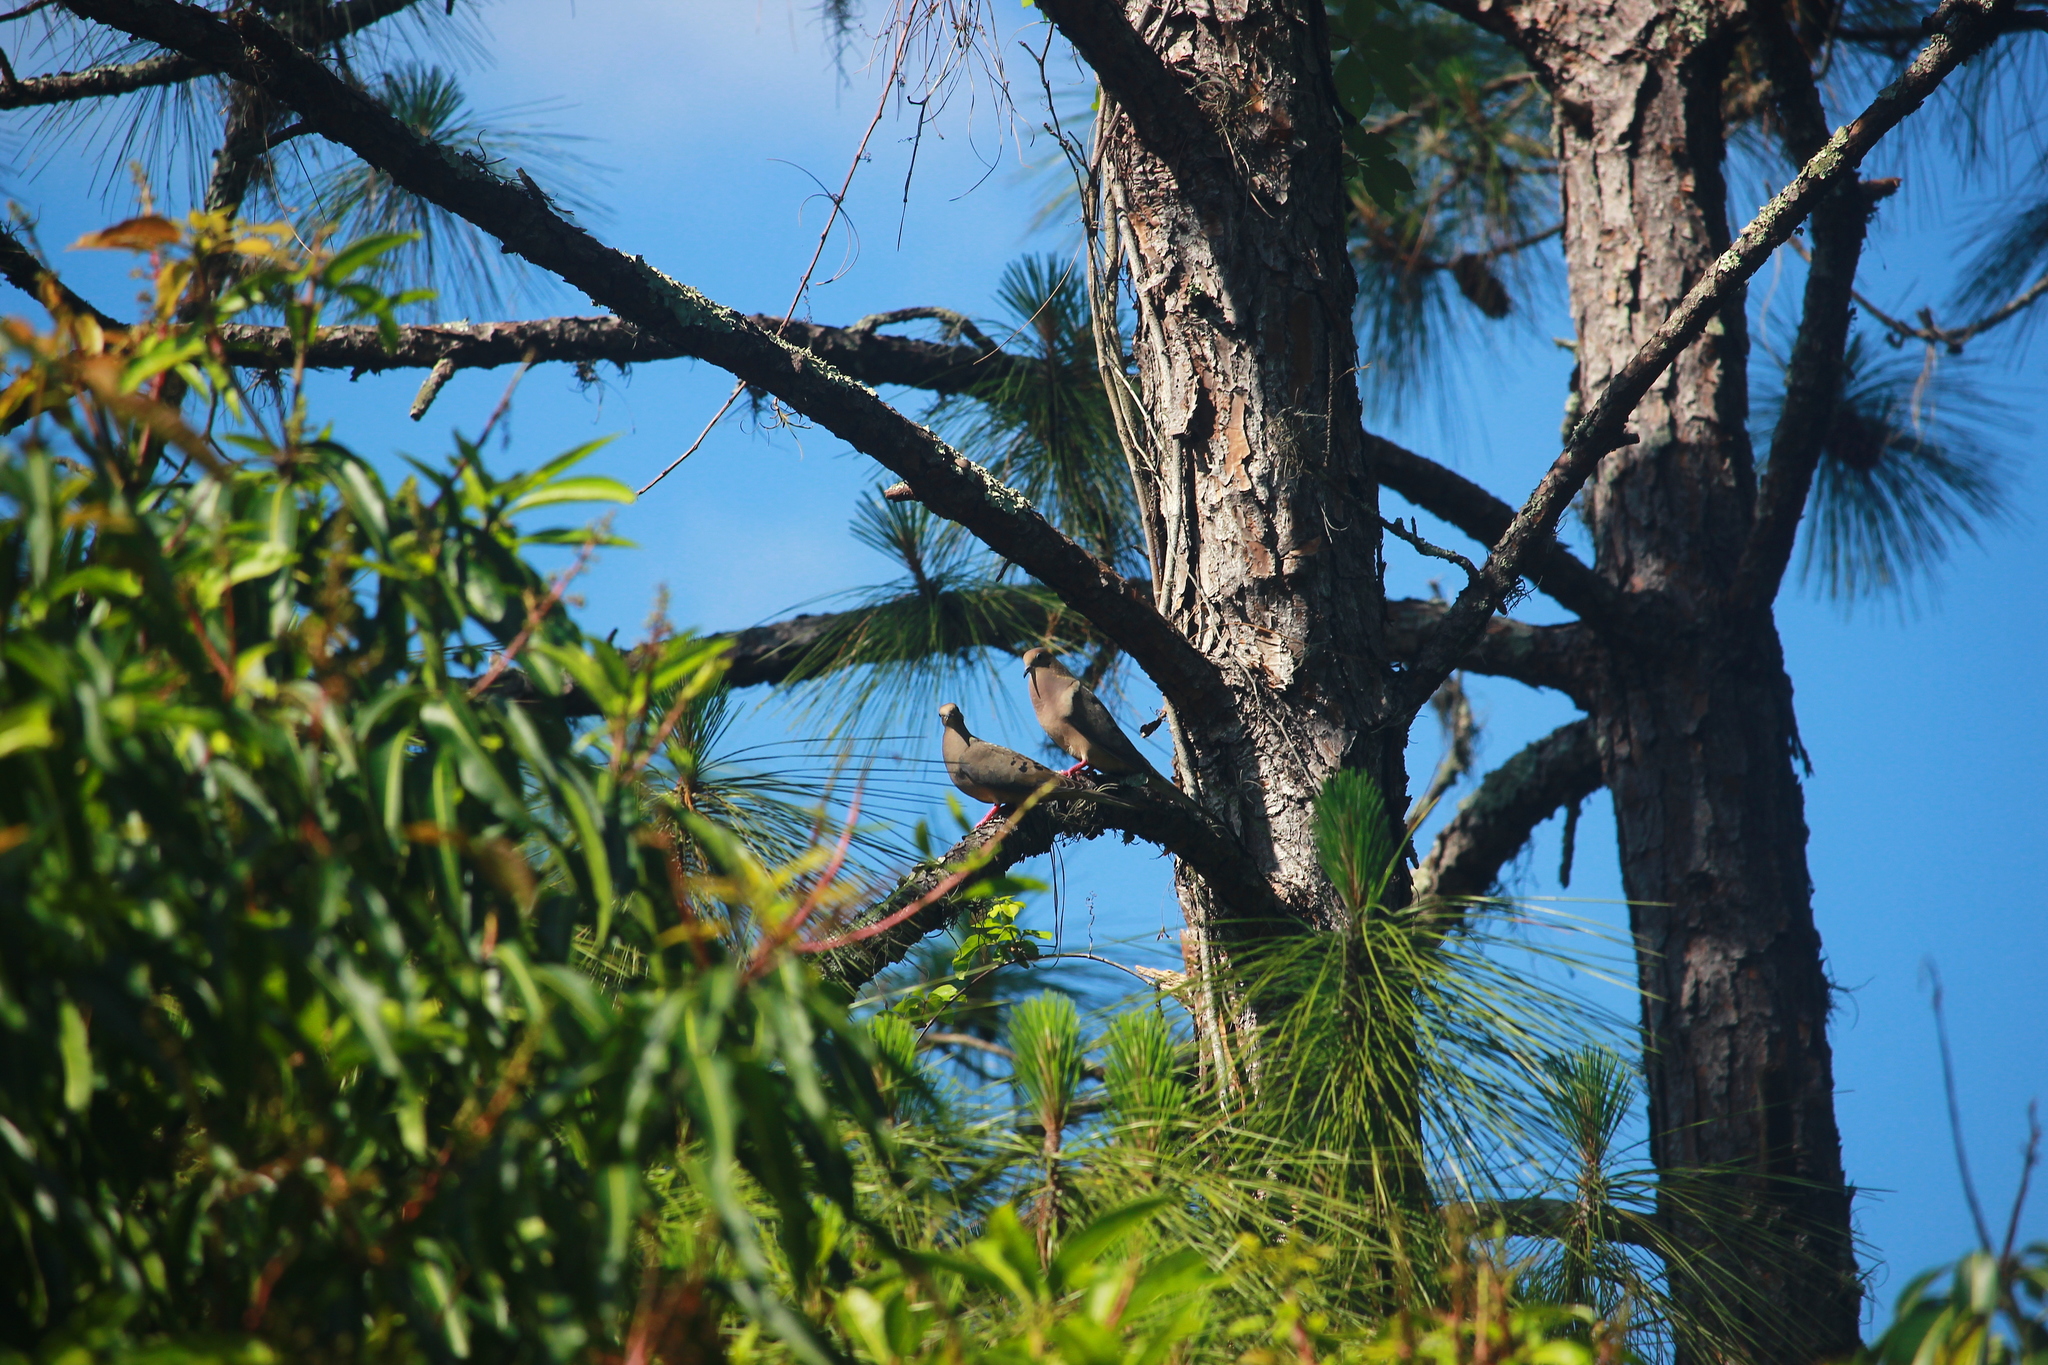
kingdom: Animalia
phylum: Chordata
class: Aves
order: Columbiformes
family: Columbidae
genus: Zenaida
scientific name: Zenaida macroura
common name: Mourning dove
